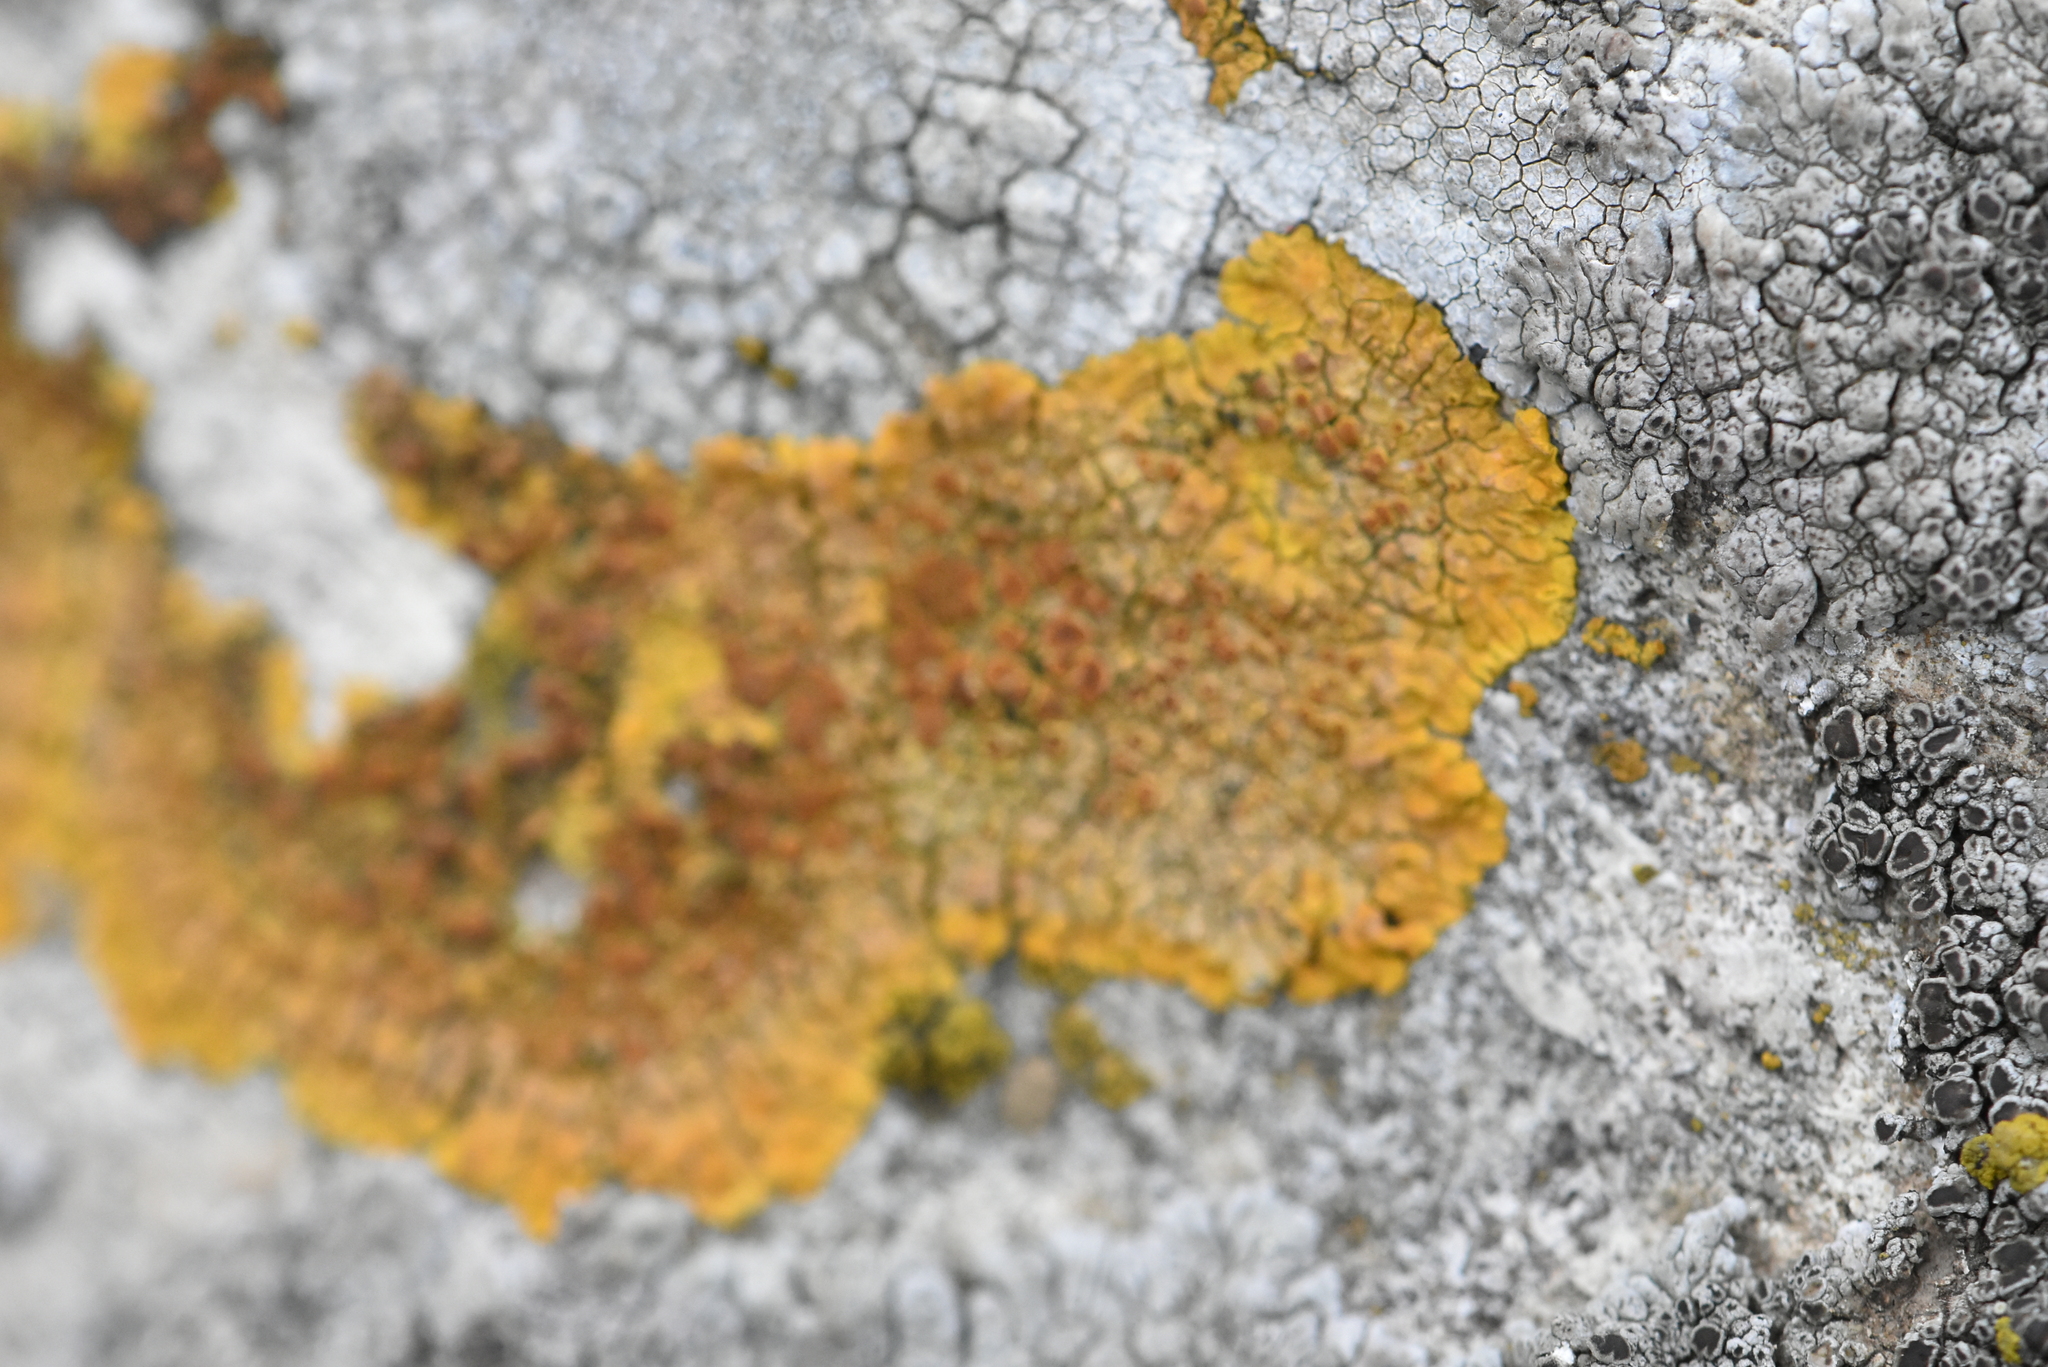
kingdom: Fungi
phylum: Ascomycota
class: Lecanoromycetes
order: Teloschistales
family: Teloschistaceae
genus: Xanthoria
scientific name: Xanthoria parietina
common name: Common orange lichen
